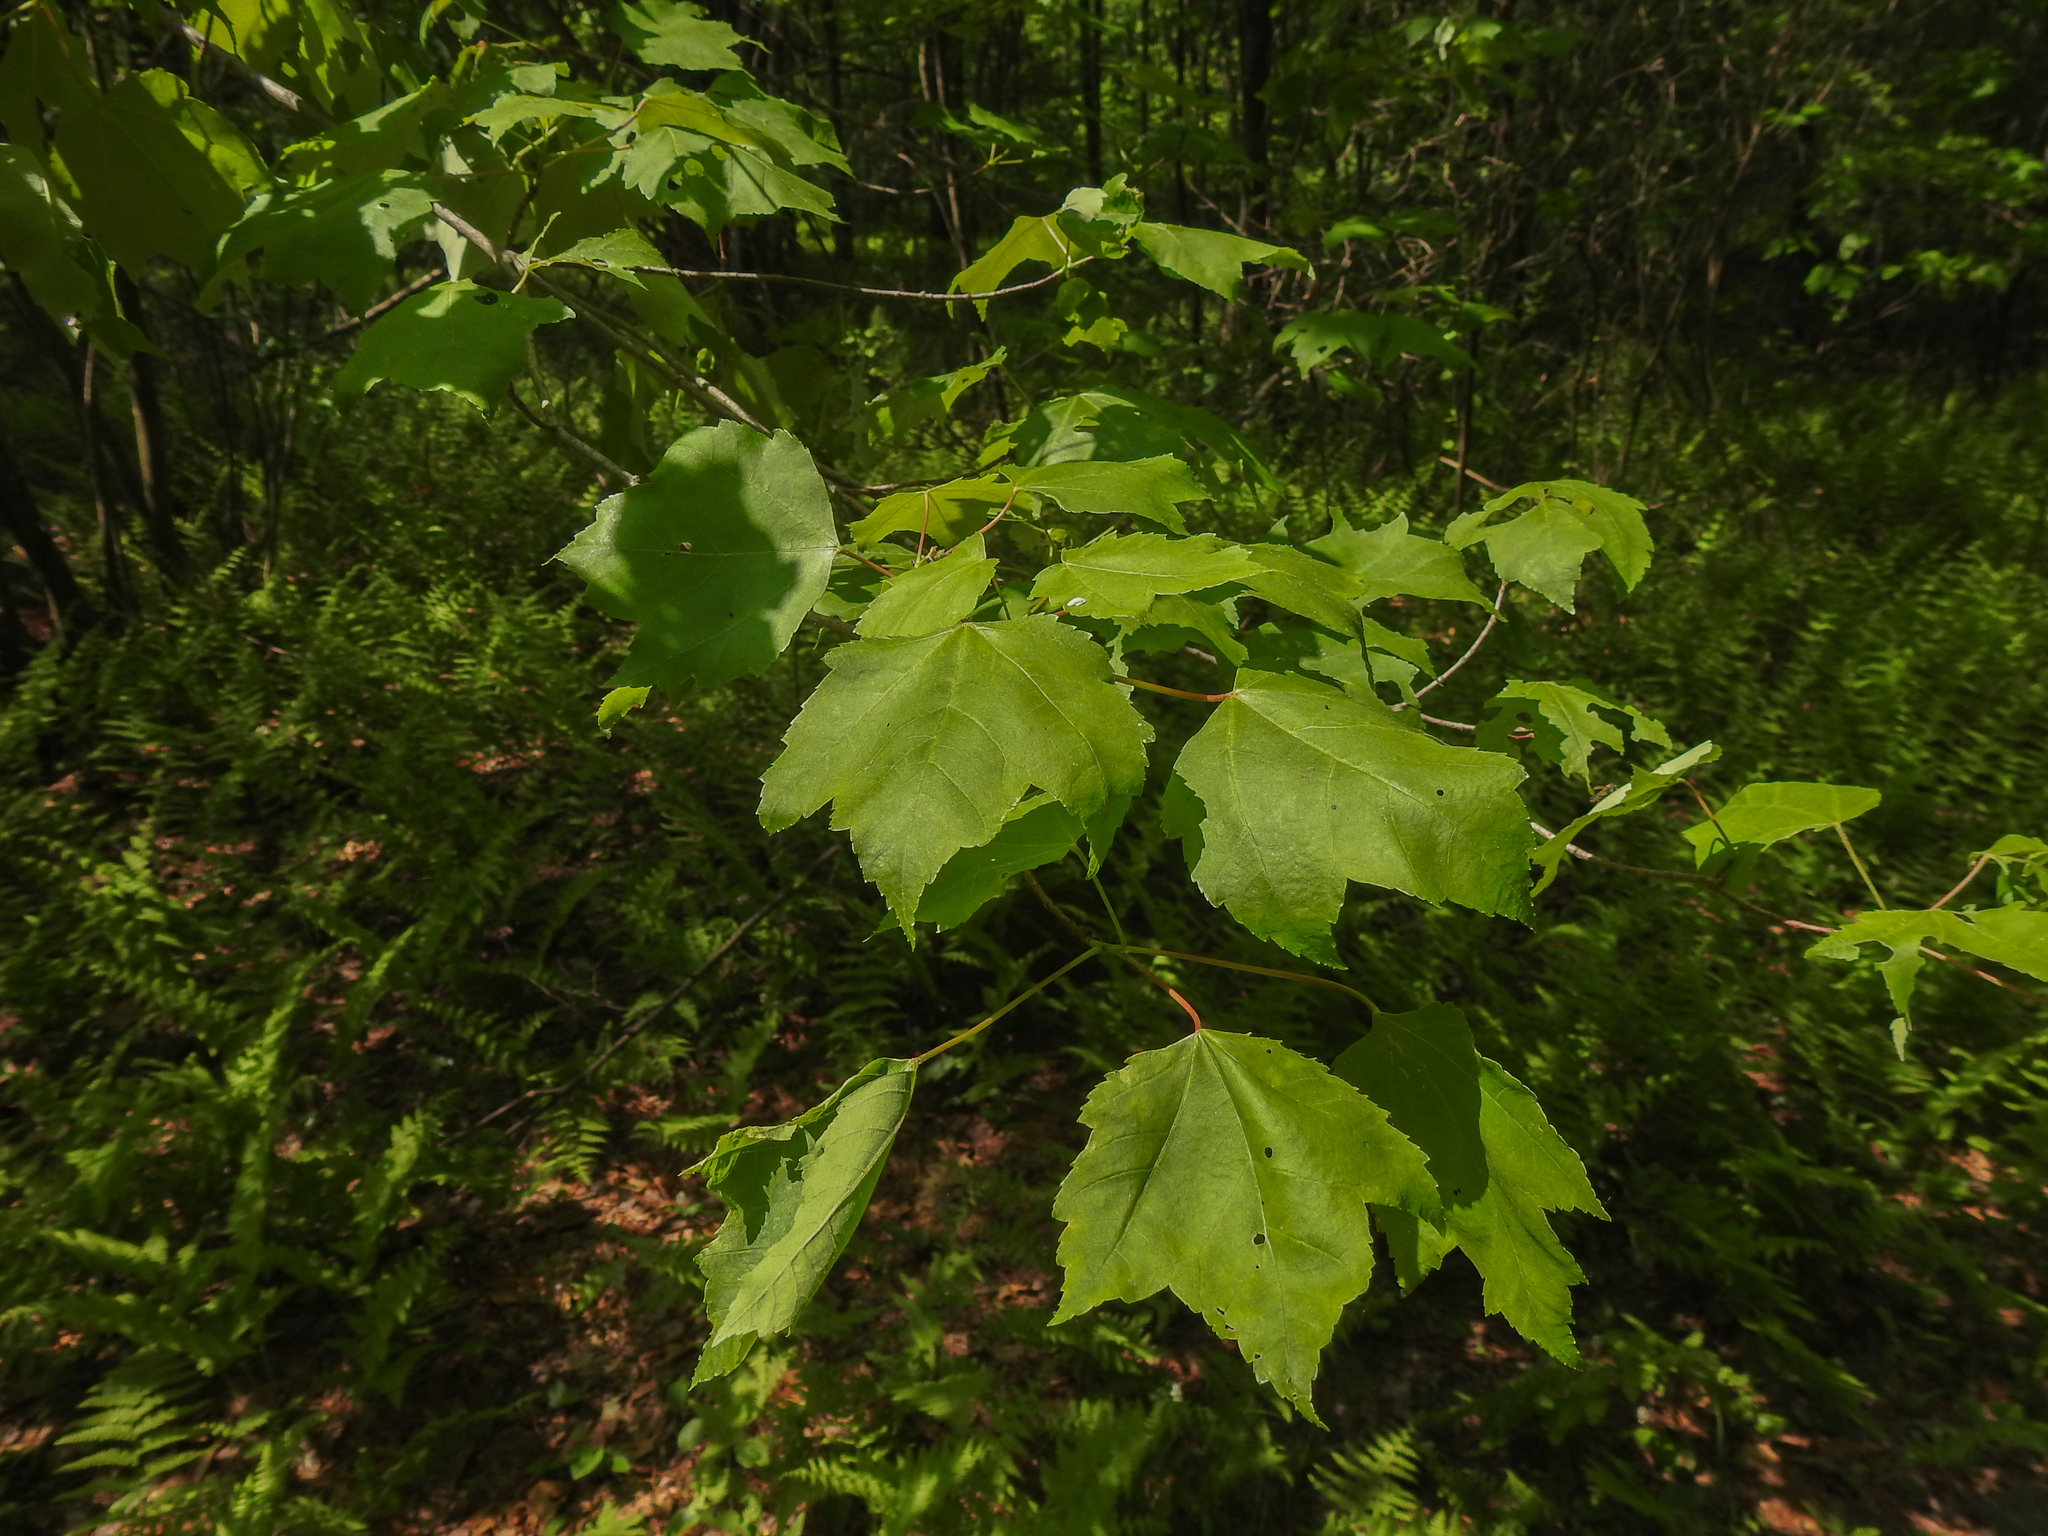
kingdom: Plantae
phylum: Tracheophyta
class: Magnoliopsida
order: Sapindales
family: Sapindaceae
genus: Acer
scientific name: Acer rubrum
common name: Red maple
